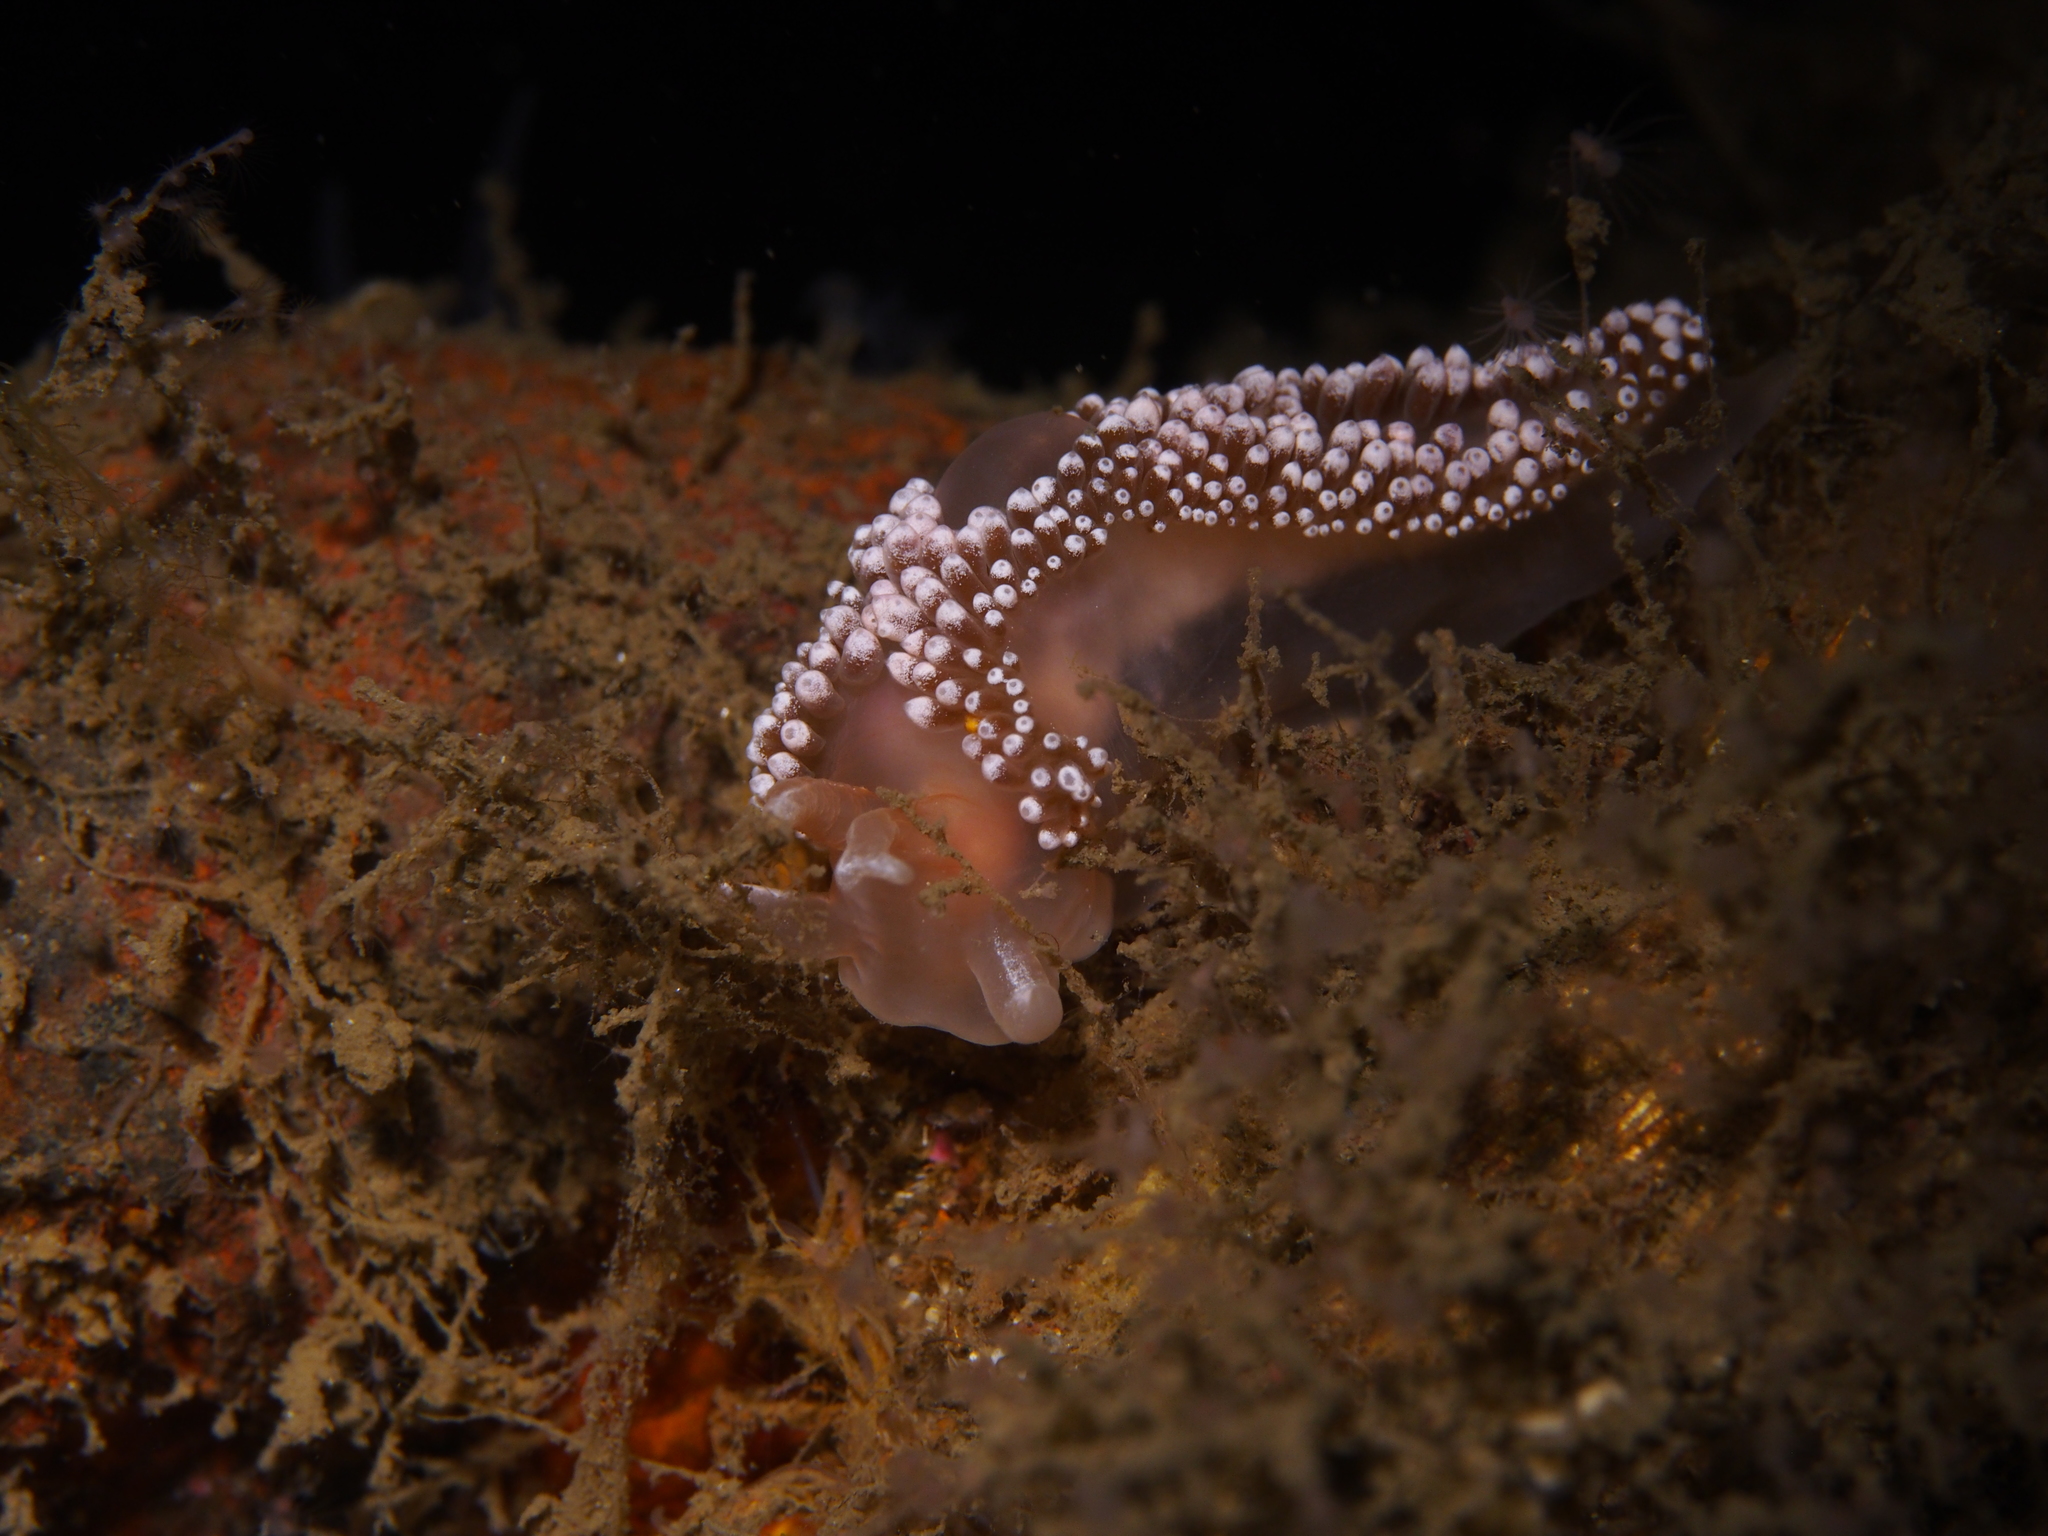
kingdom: Animalia
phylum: Mollusca
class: Gastropoda
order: Nudibranchia
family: Coryphellidae
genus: Coryphella
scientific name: Coryphella verrucosa
